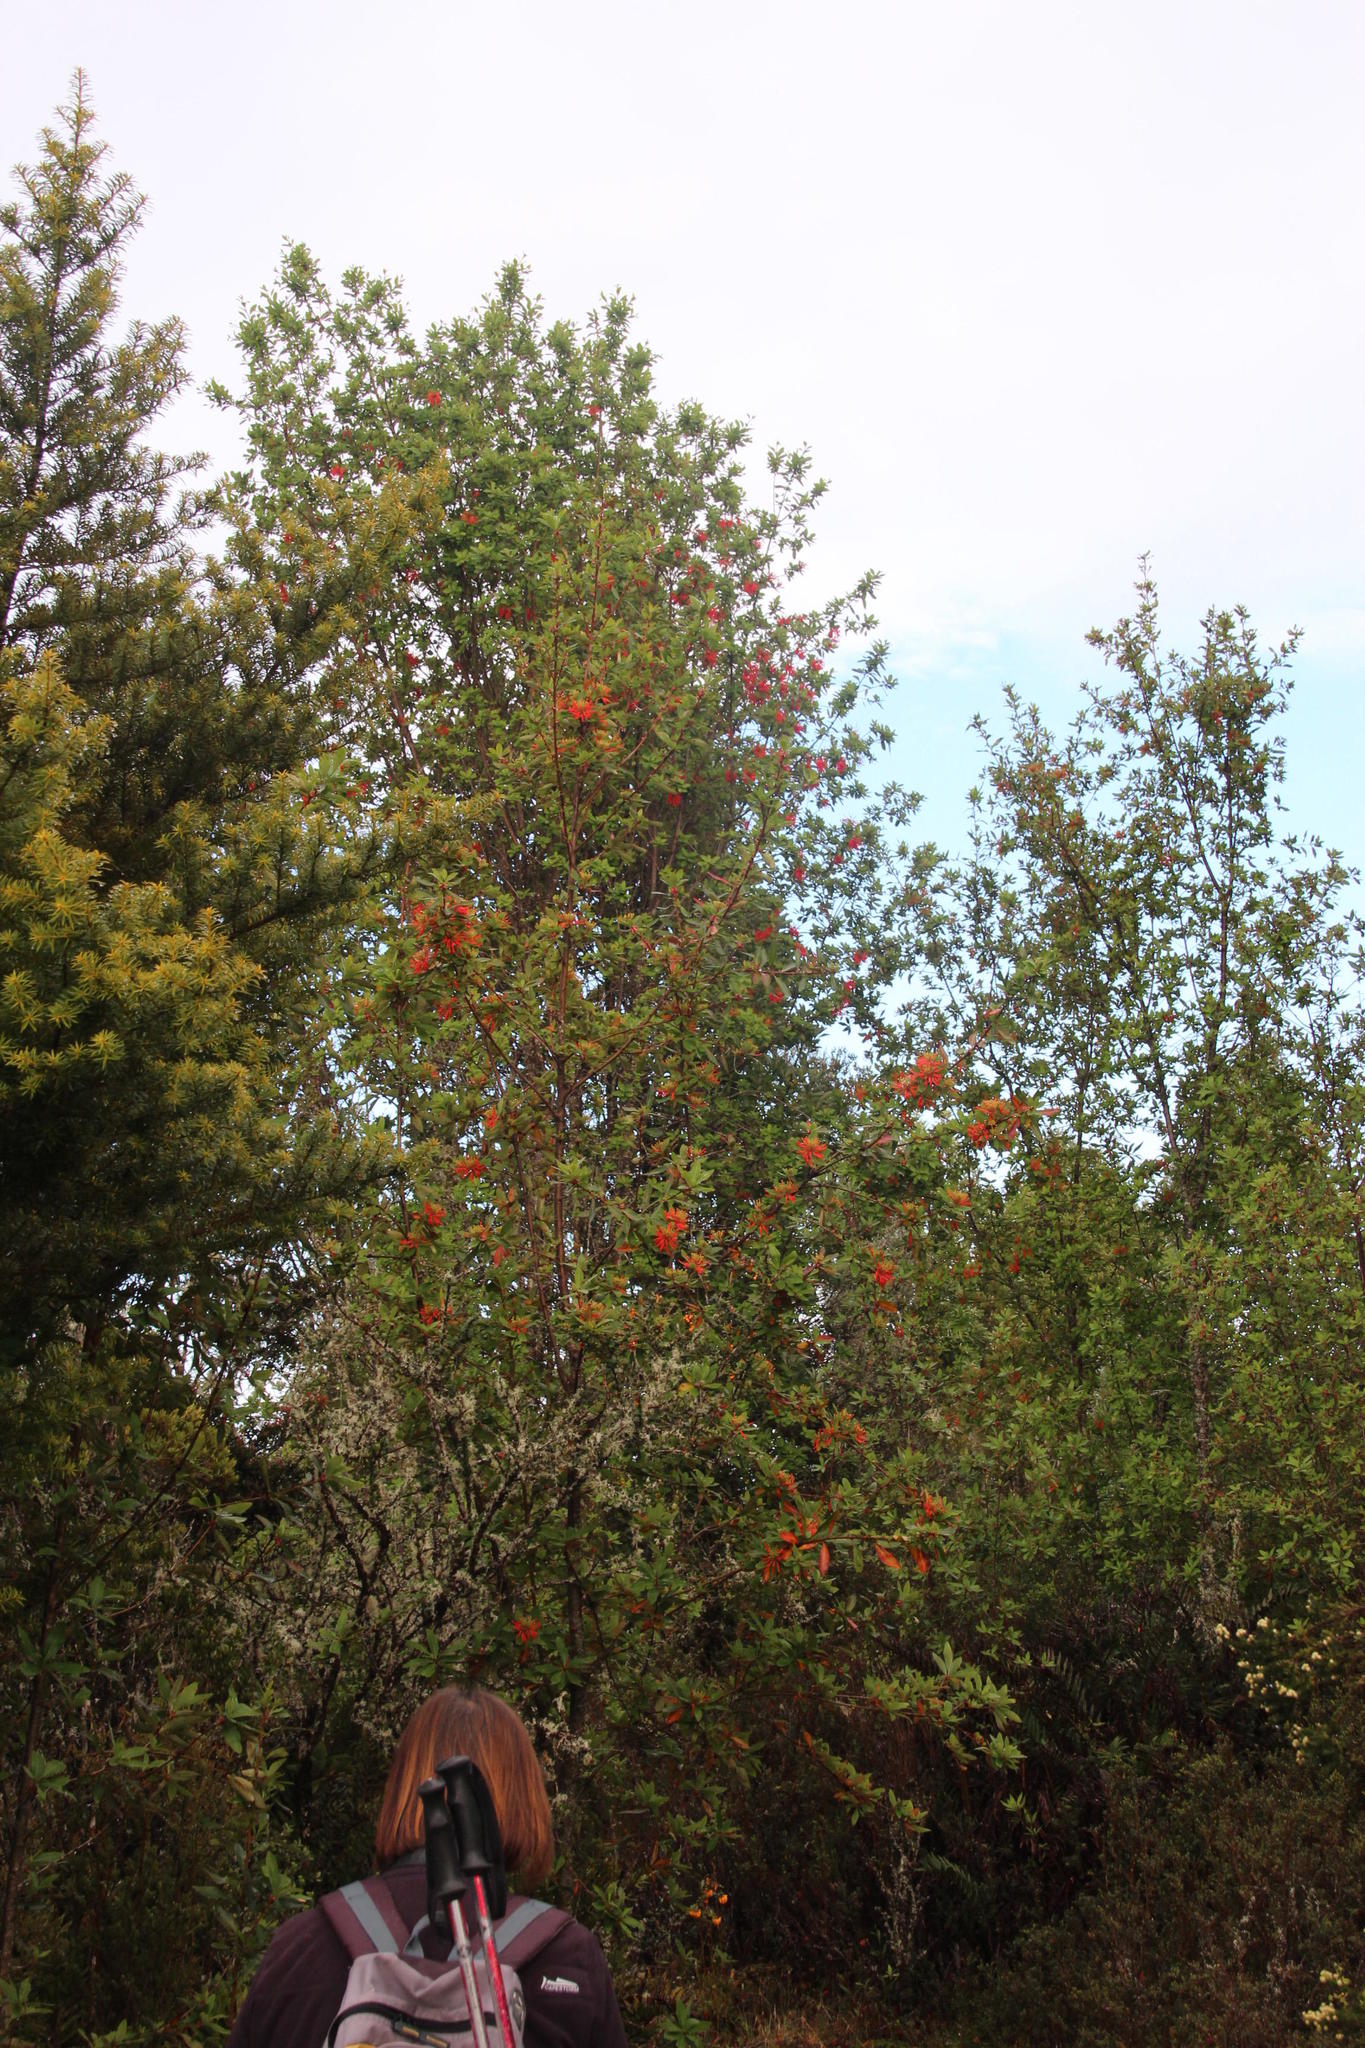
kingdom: Plantae
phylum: Tracheophyta
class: Magnoliopsida
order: Proteales
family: Proteaceae
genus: Embothrium
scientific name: Embothrium coccineum
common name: Chilean firebush
